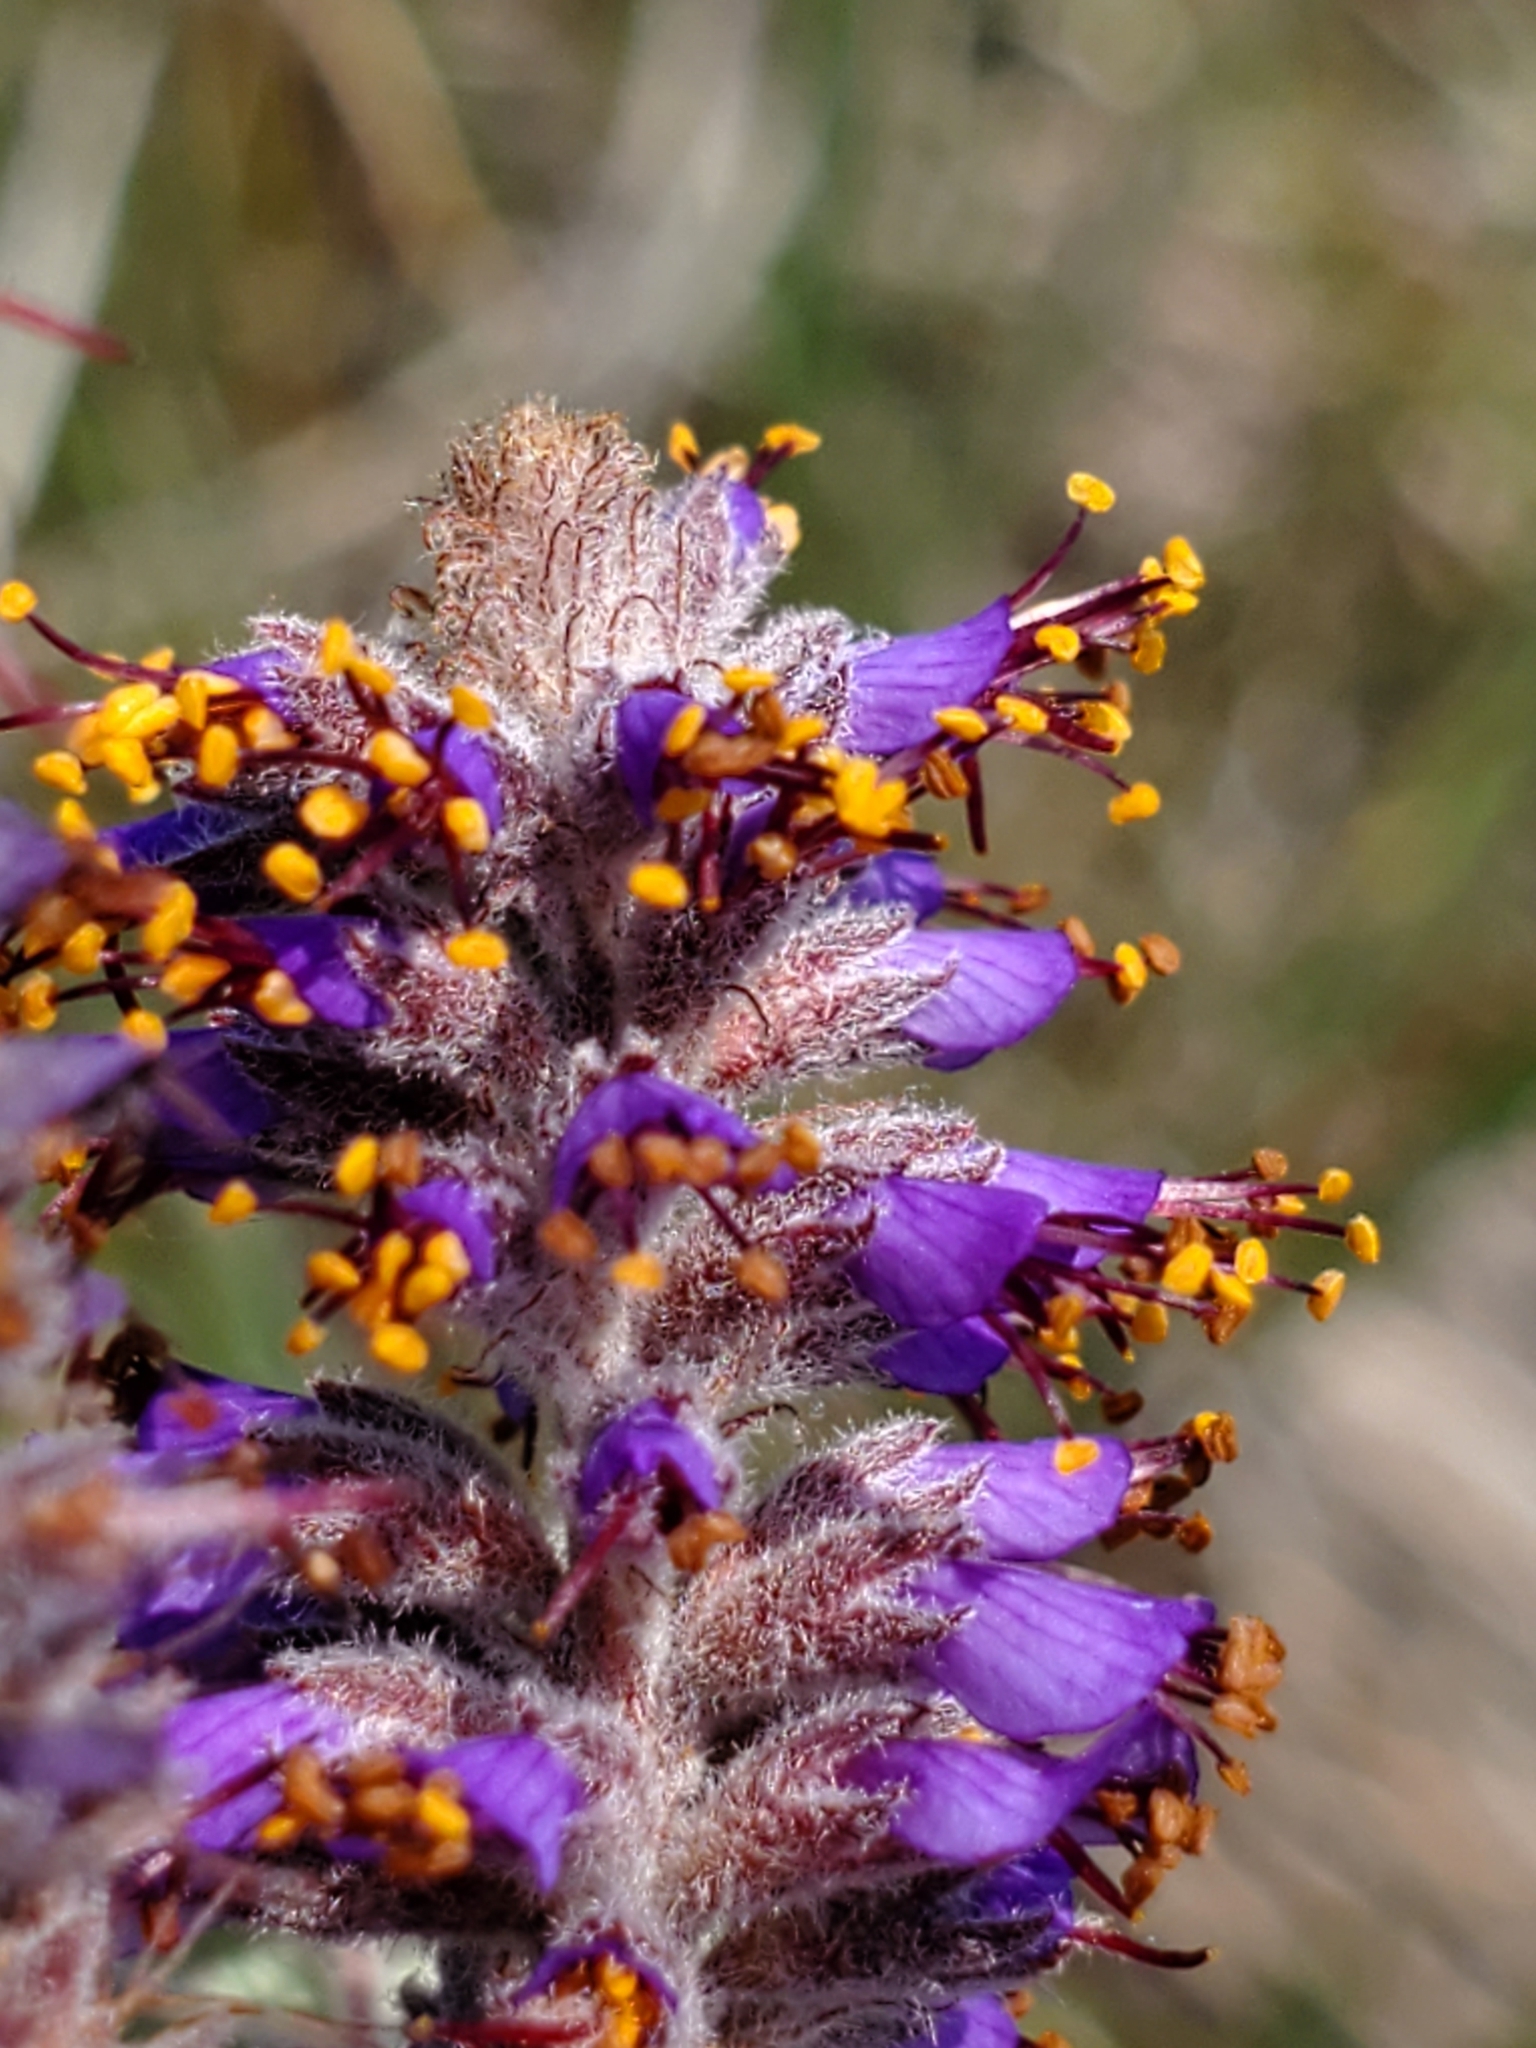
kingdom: Plantae
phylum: Tracheophyta
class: Magnoliopsida
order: Fabales
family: Fabaceae
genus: Amorpha
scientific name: Amorpha canescens
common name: Leadplant
